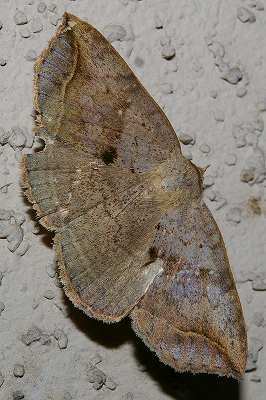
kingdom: Animalia
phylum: Arthropoda
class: Insecta
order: Lepidoptera
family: Erebidae
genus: Blasticorhinus
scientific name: Blasticorhinus ussuriensis
